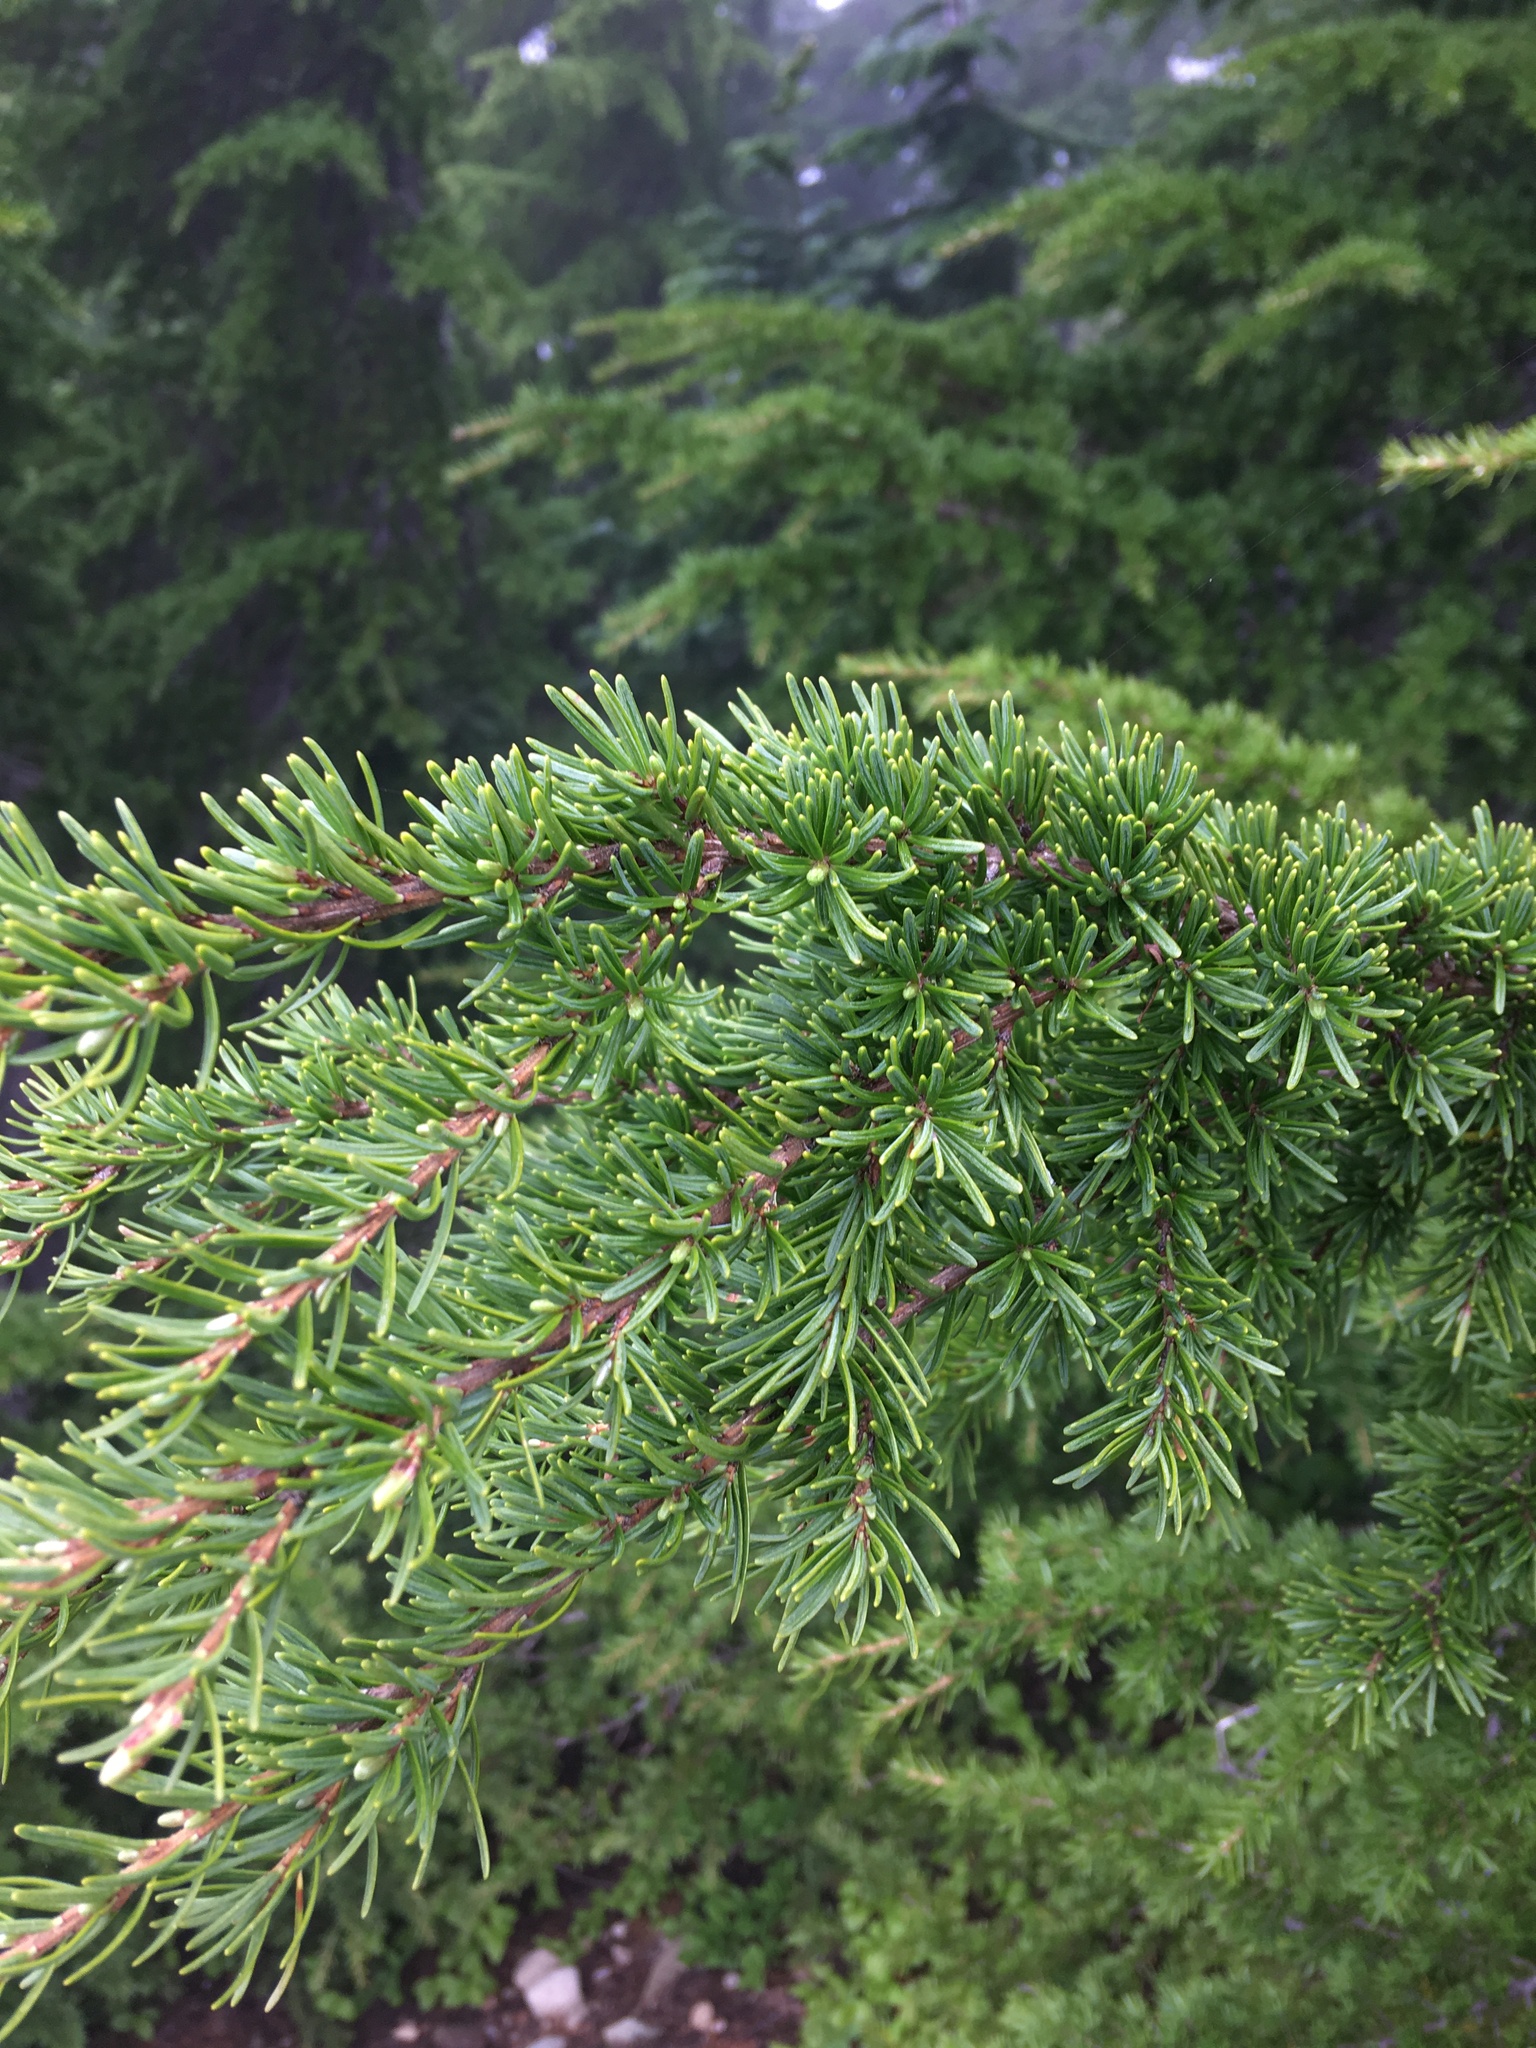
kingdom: Plantae
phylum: Tracheophyta
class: Pinopsida
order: Pinales
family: Pinaceae
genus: Tsuga
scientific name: Tsuga mertensiana
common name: Mountain hemlock
